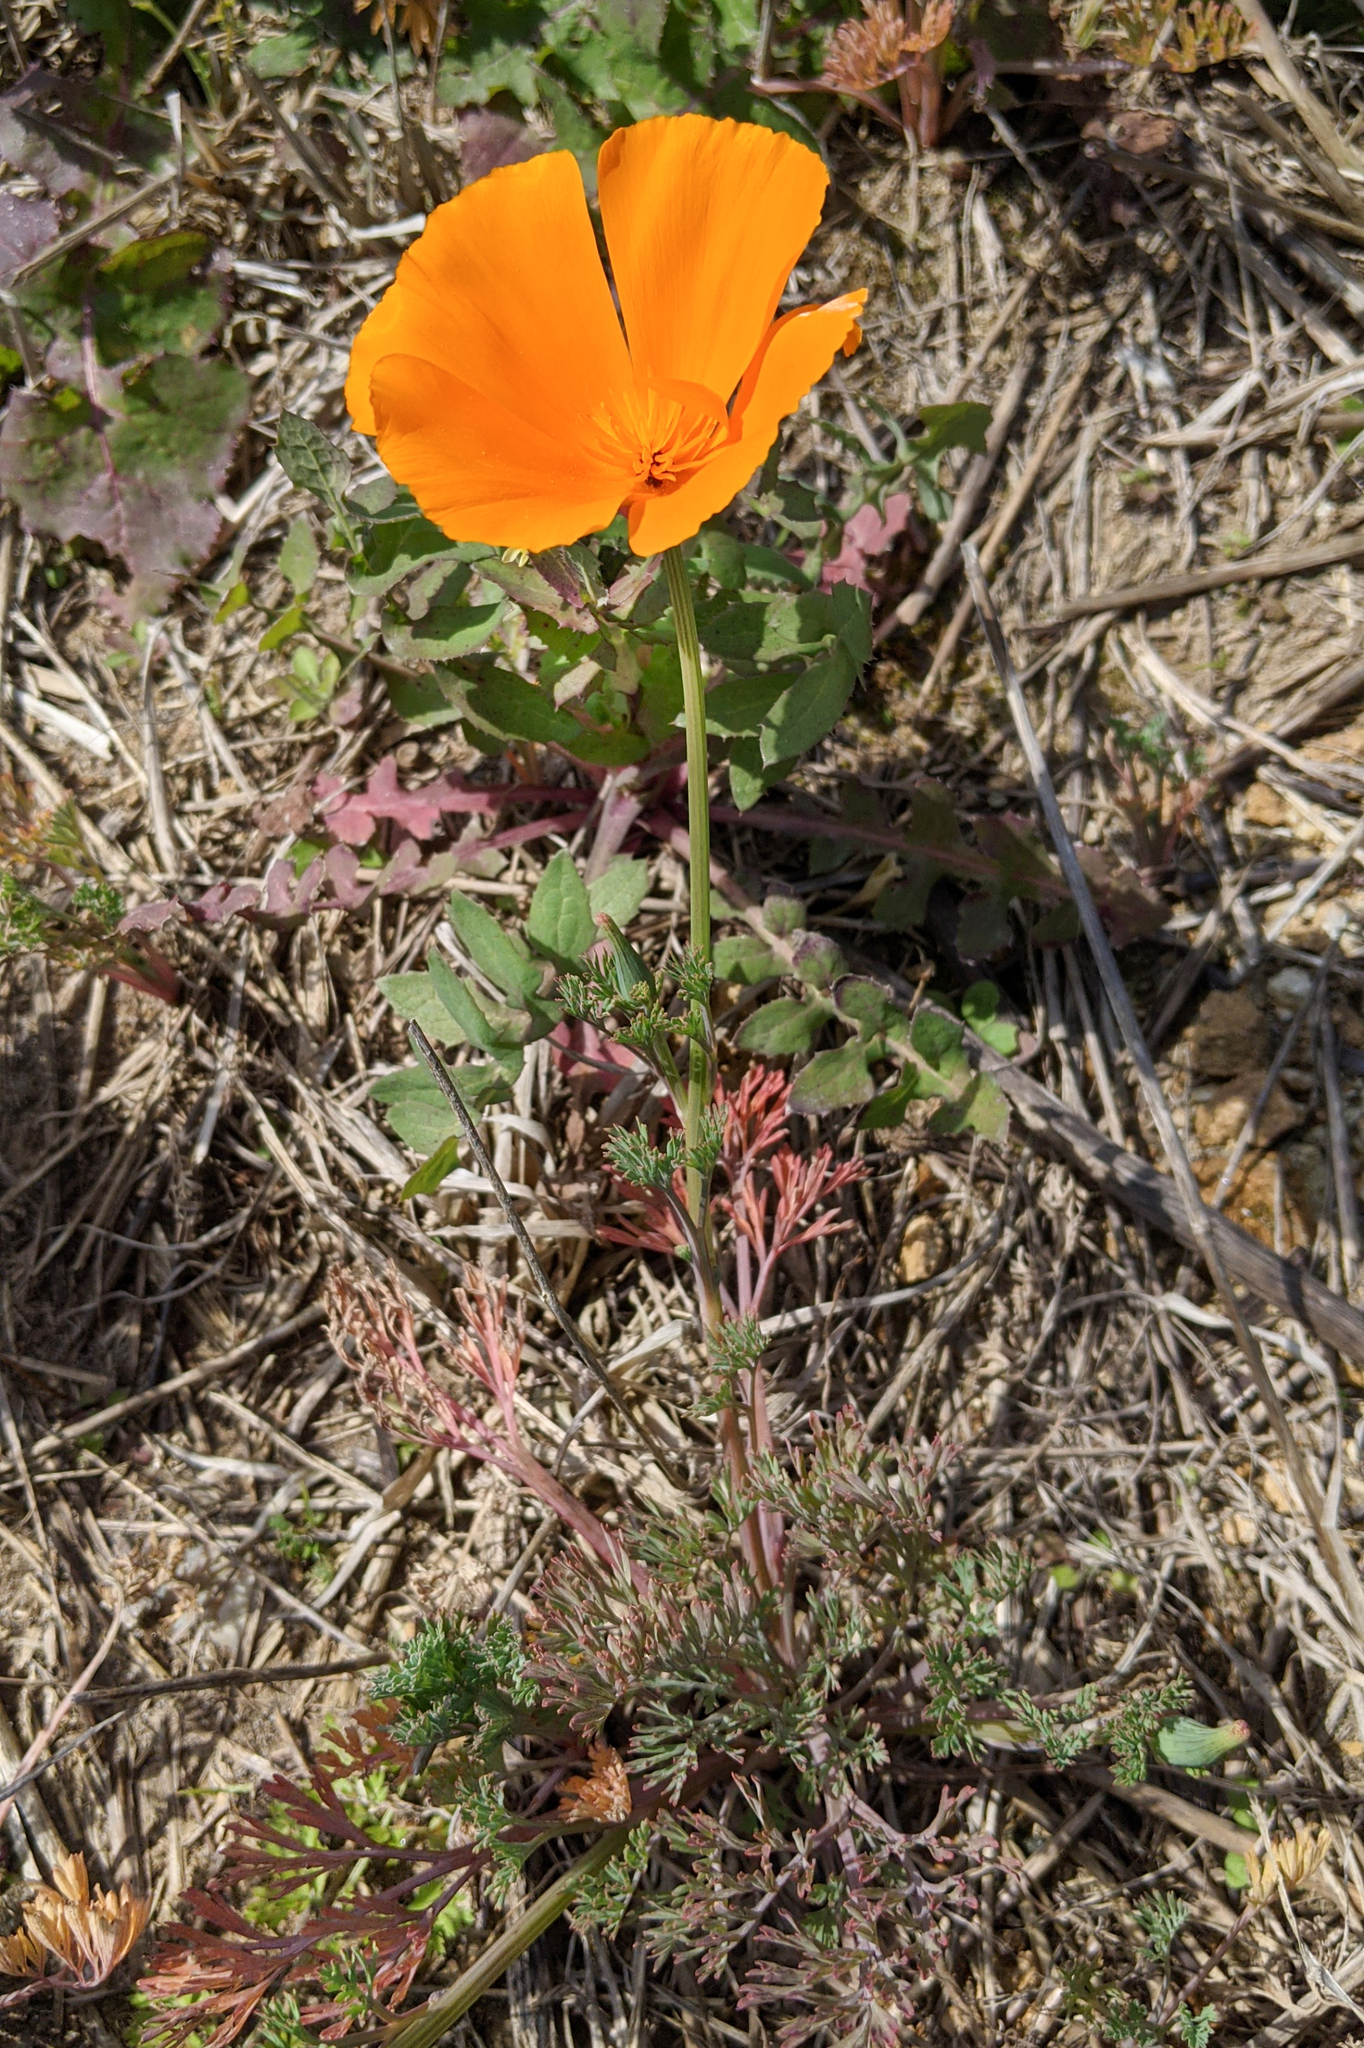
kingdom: Plantae
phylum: Tracheophyta
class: Magnoliopsida
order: Ranunculales
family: Papaveraceae
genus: Eschscholzia
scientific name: Eschscholzia californica
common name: California poppy
